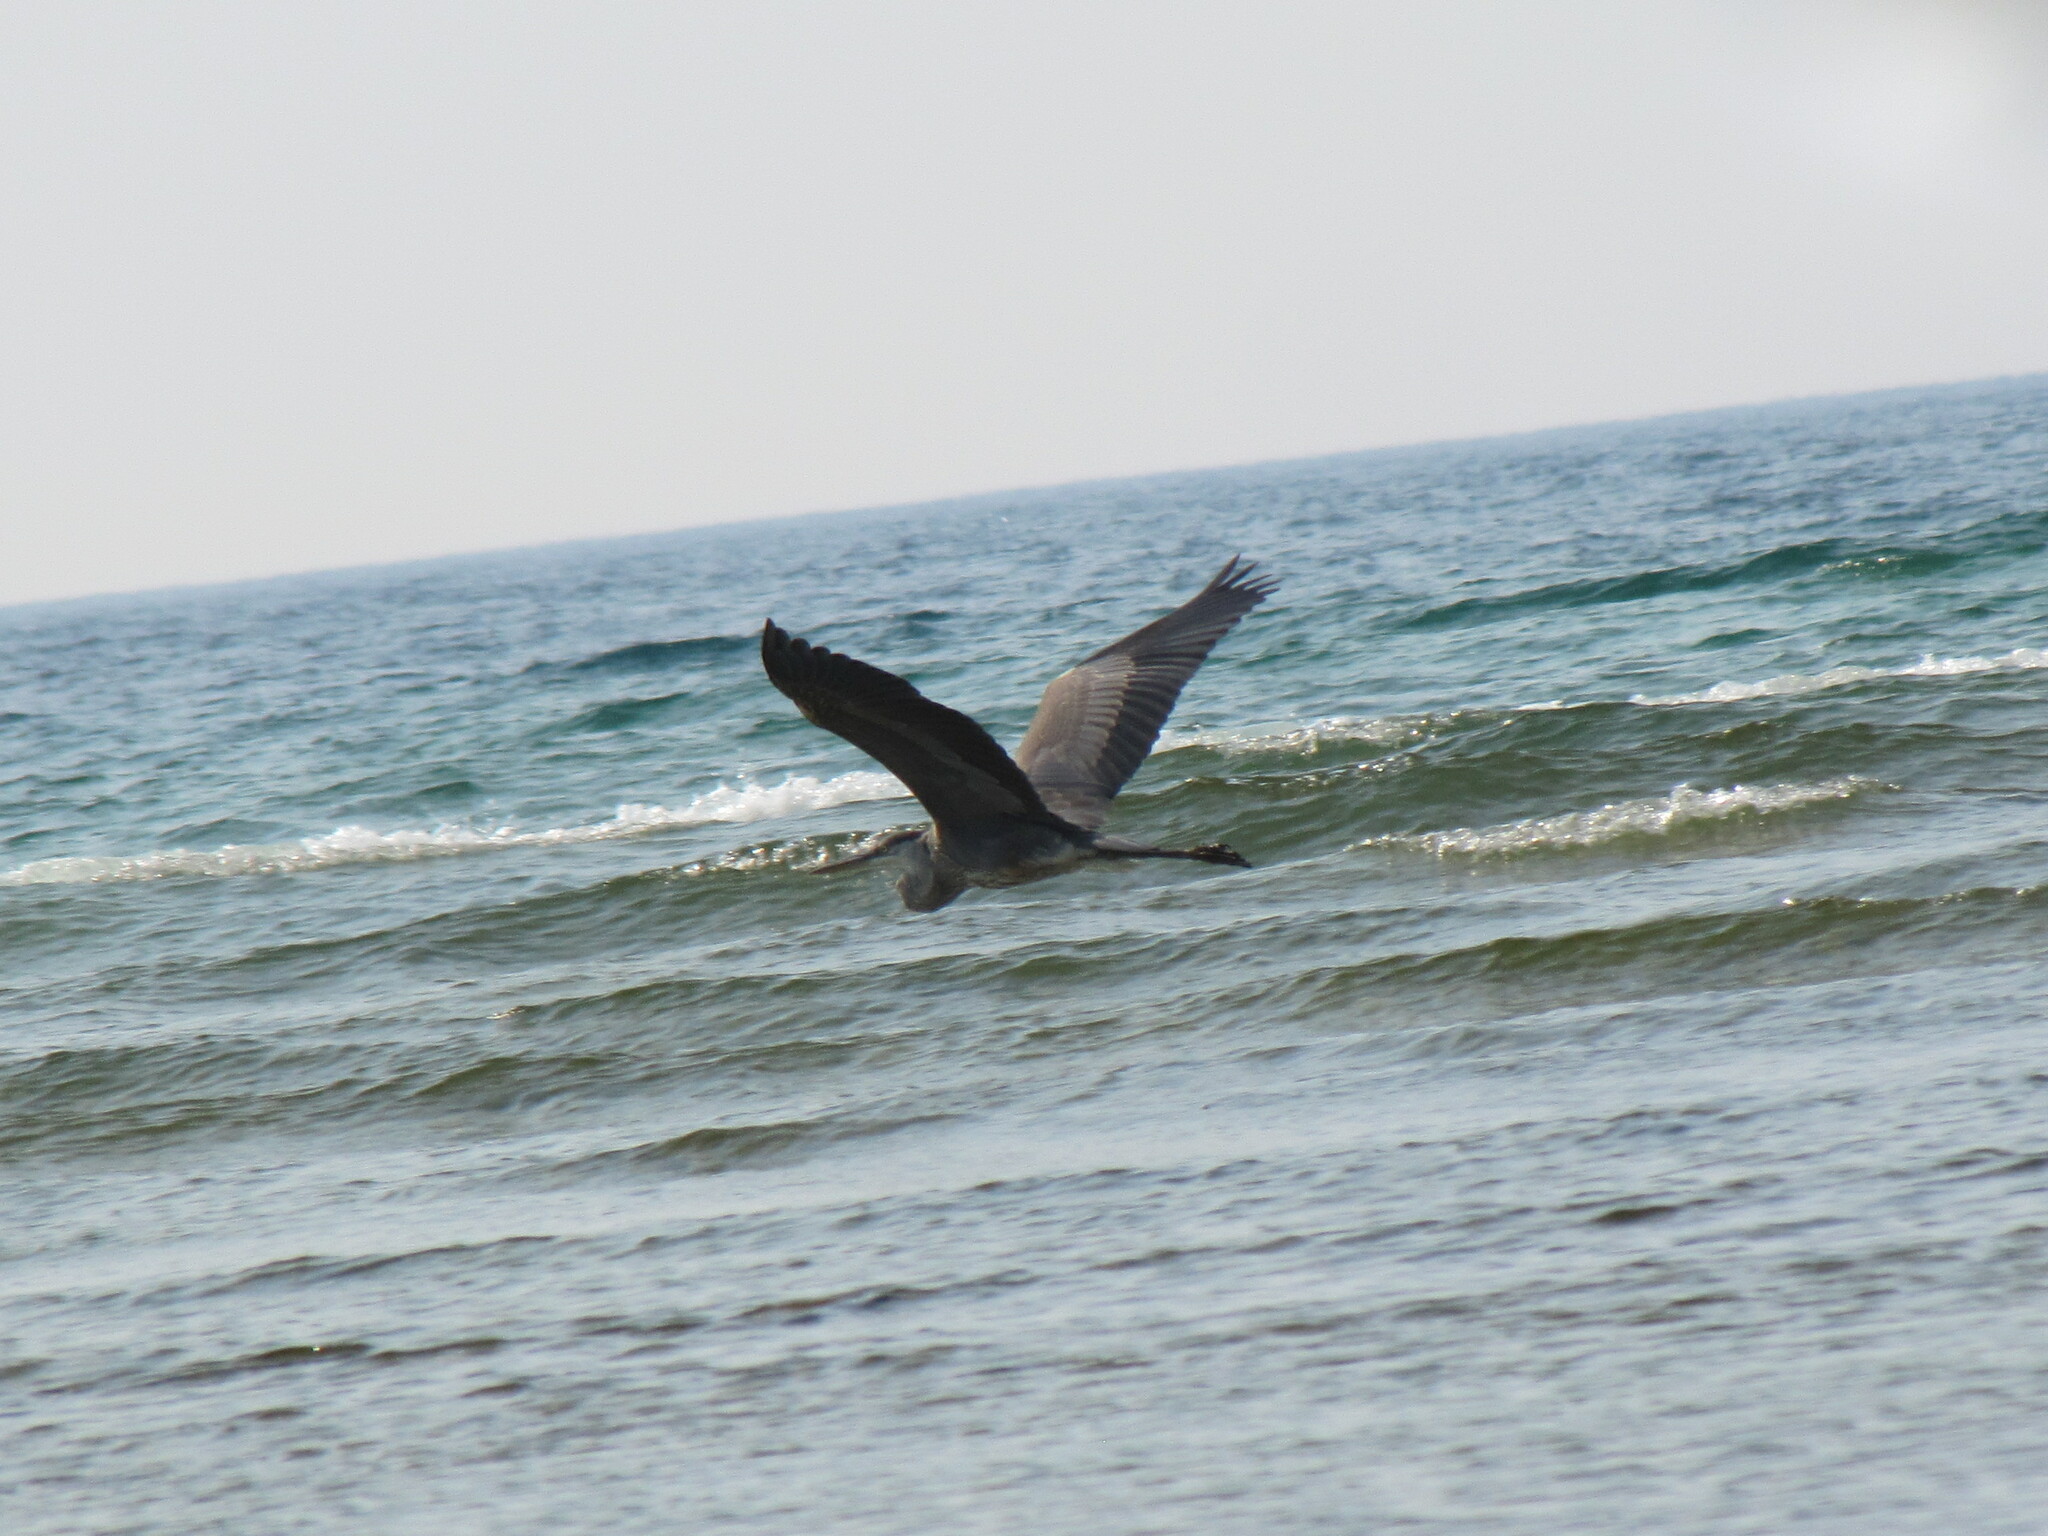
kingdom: Animalia
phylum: Chordata
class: Aves
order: Pelecaniformes
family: Ardeidae
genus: Ardea
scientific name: Ardea herodias
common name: Great blue heron
